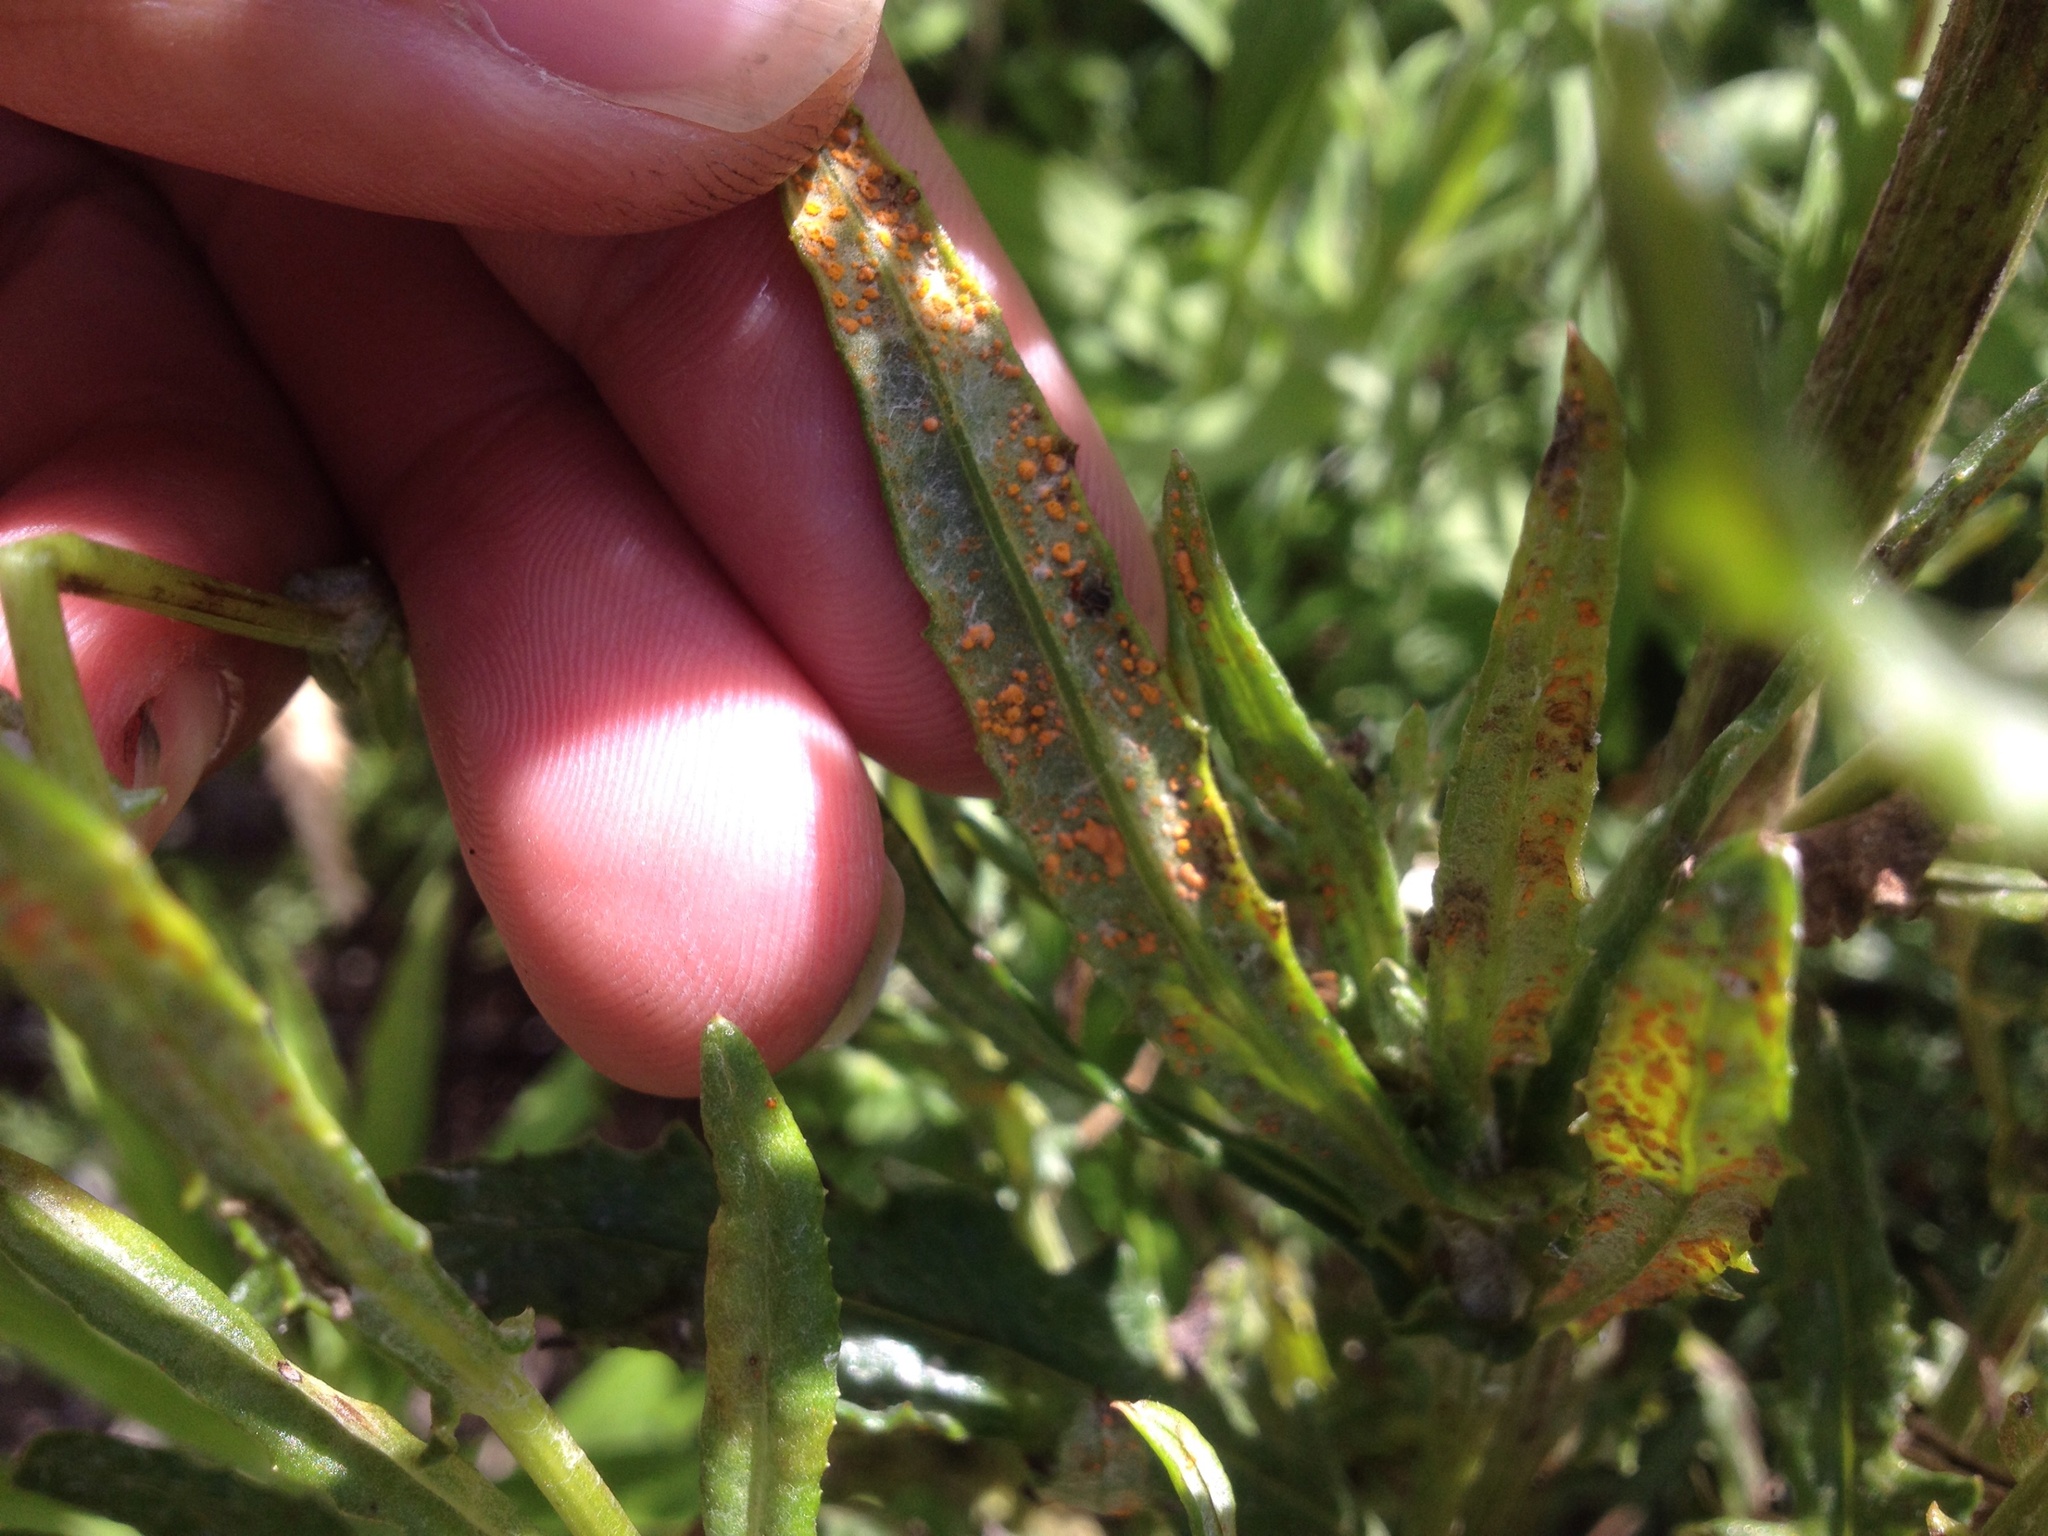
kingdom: Fungi
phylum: Basidiomycota
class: Pucciniomycetes
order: Pucciniales
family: Coleosporiaceae
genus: Coleosporium
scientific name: Coleosporium tussilaginis
